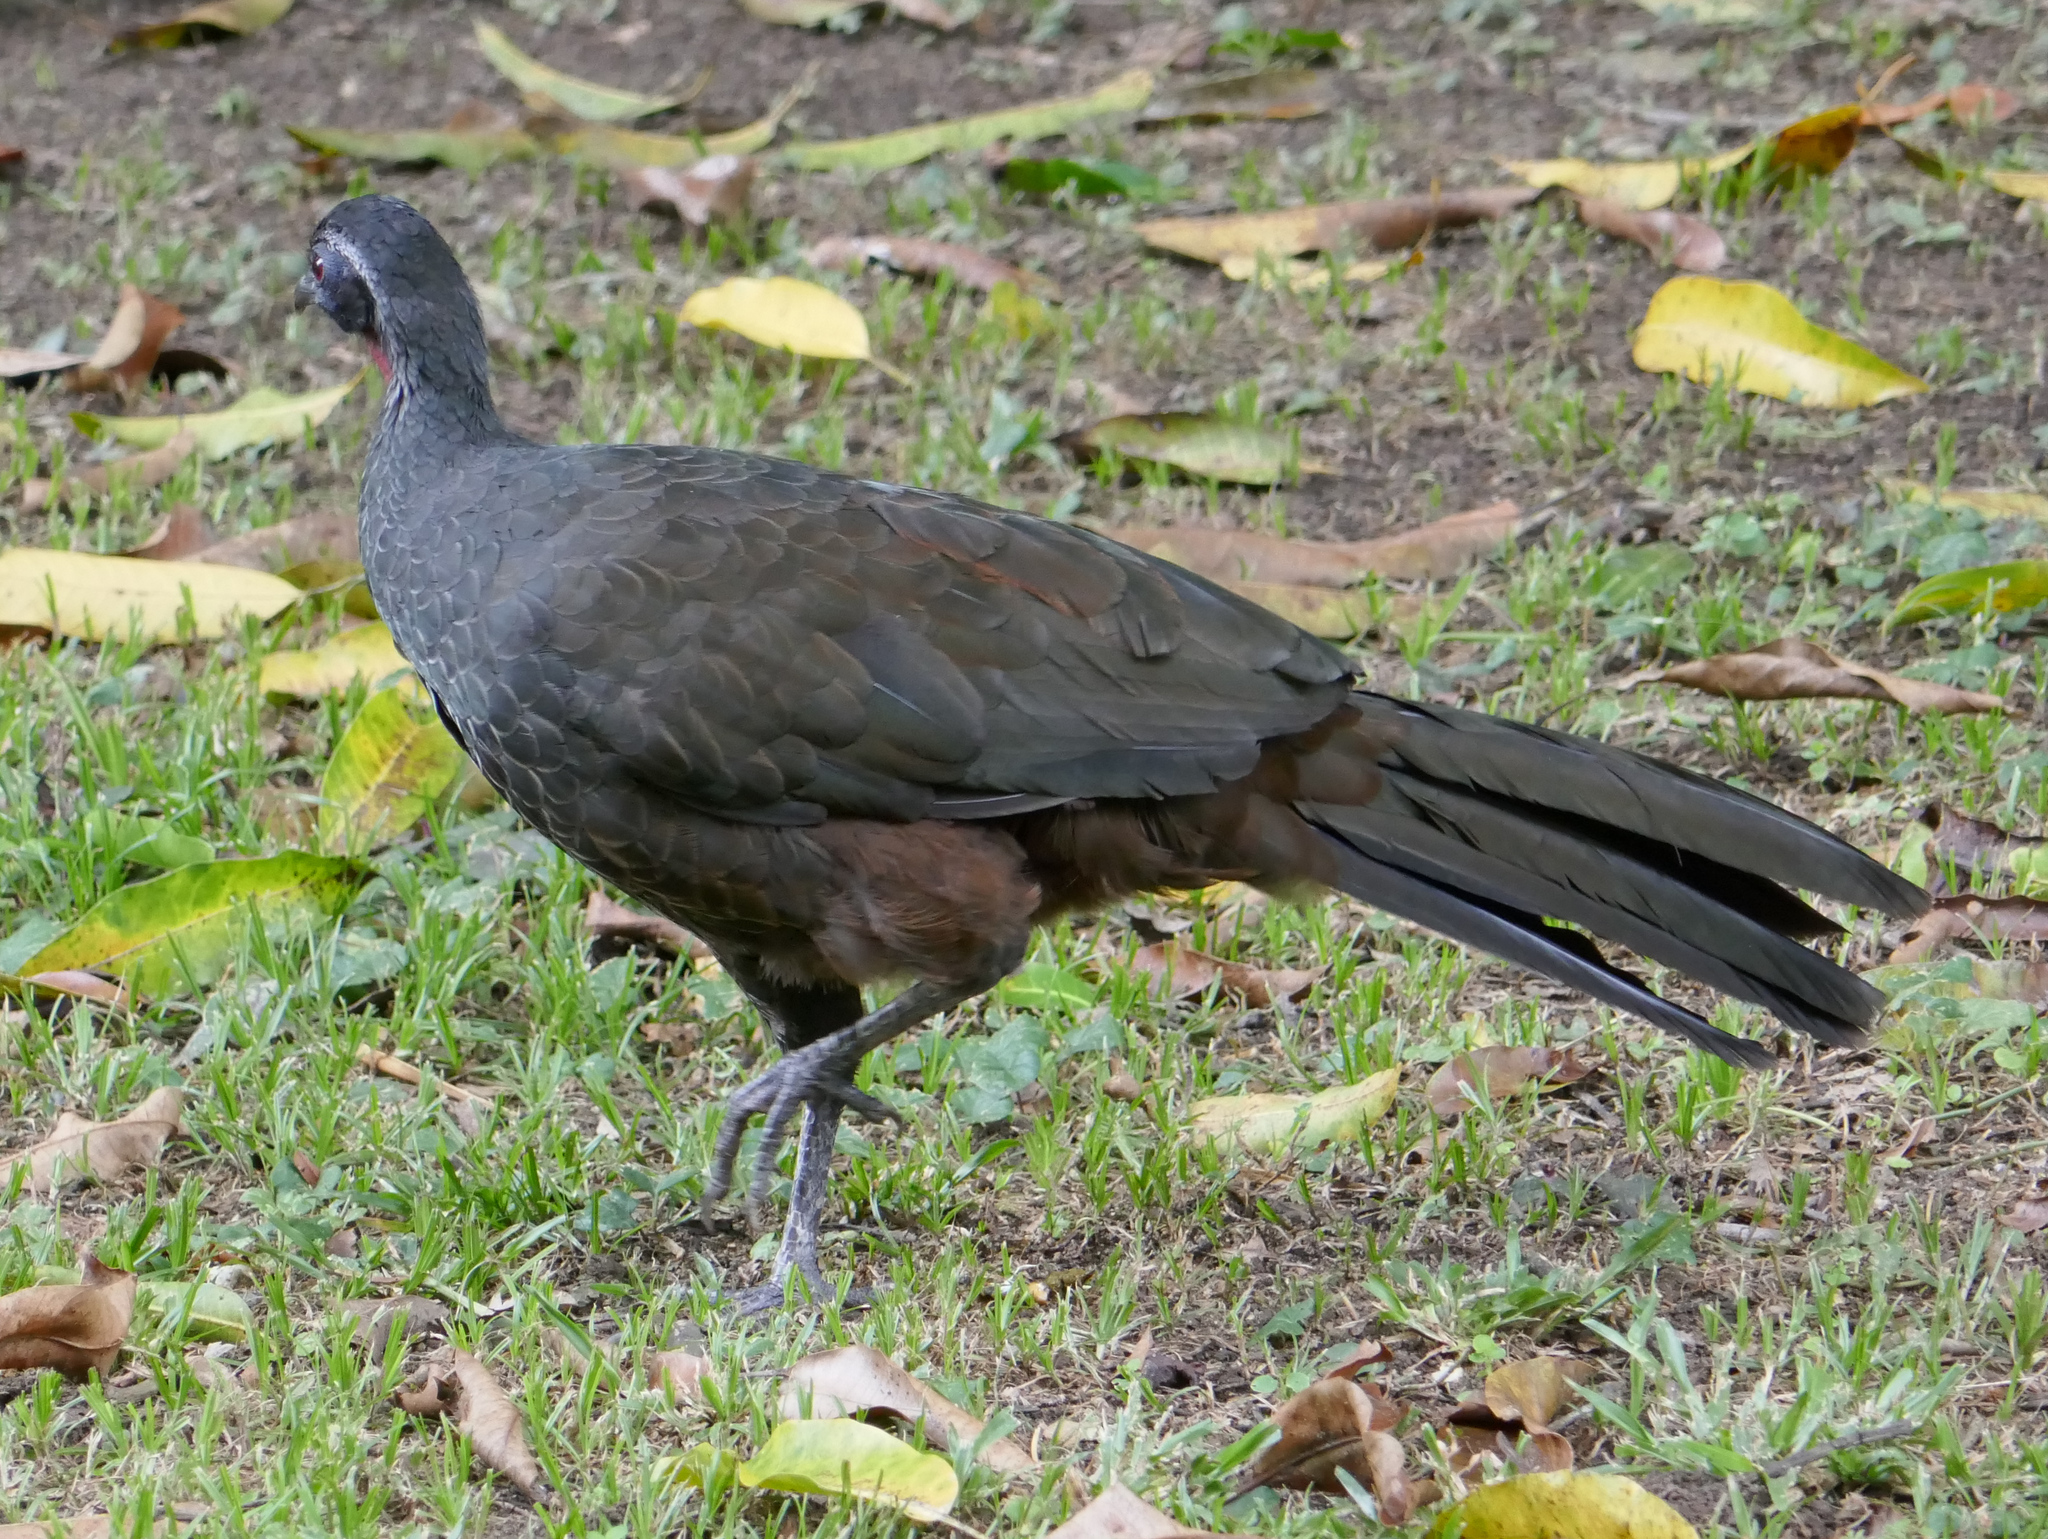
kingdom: Animalia
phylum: Chordata
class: Aves
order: Galliformes
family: Cracidae
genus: Penelope
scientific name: Penelope superciliaris
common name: Rusty-margined guan
